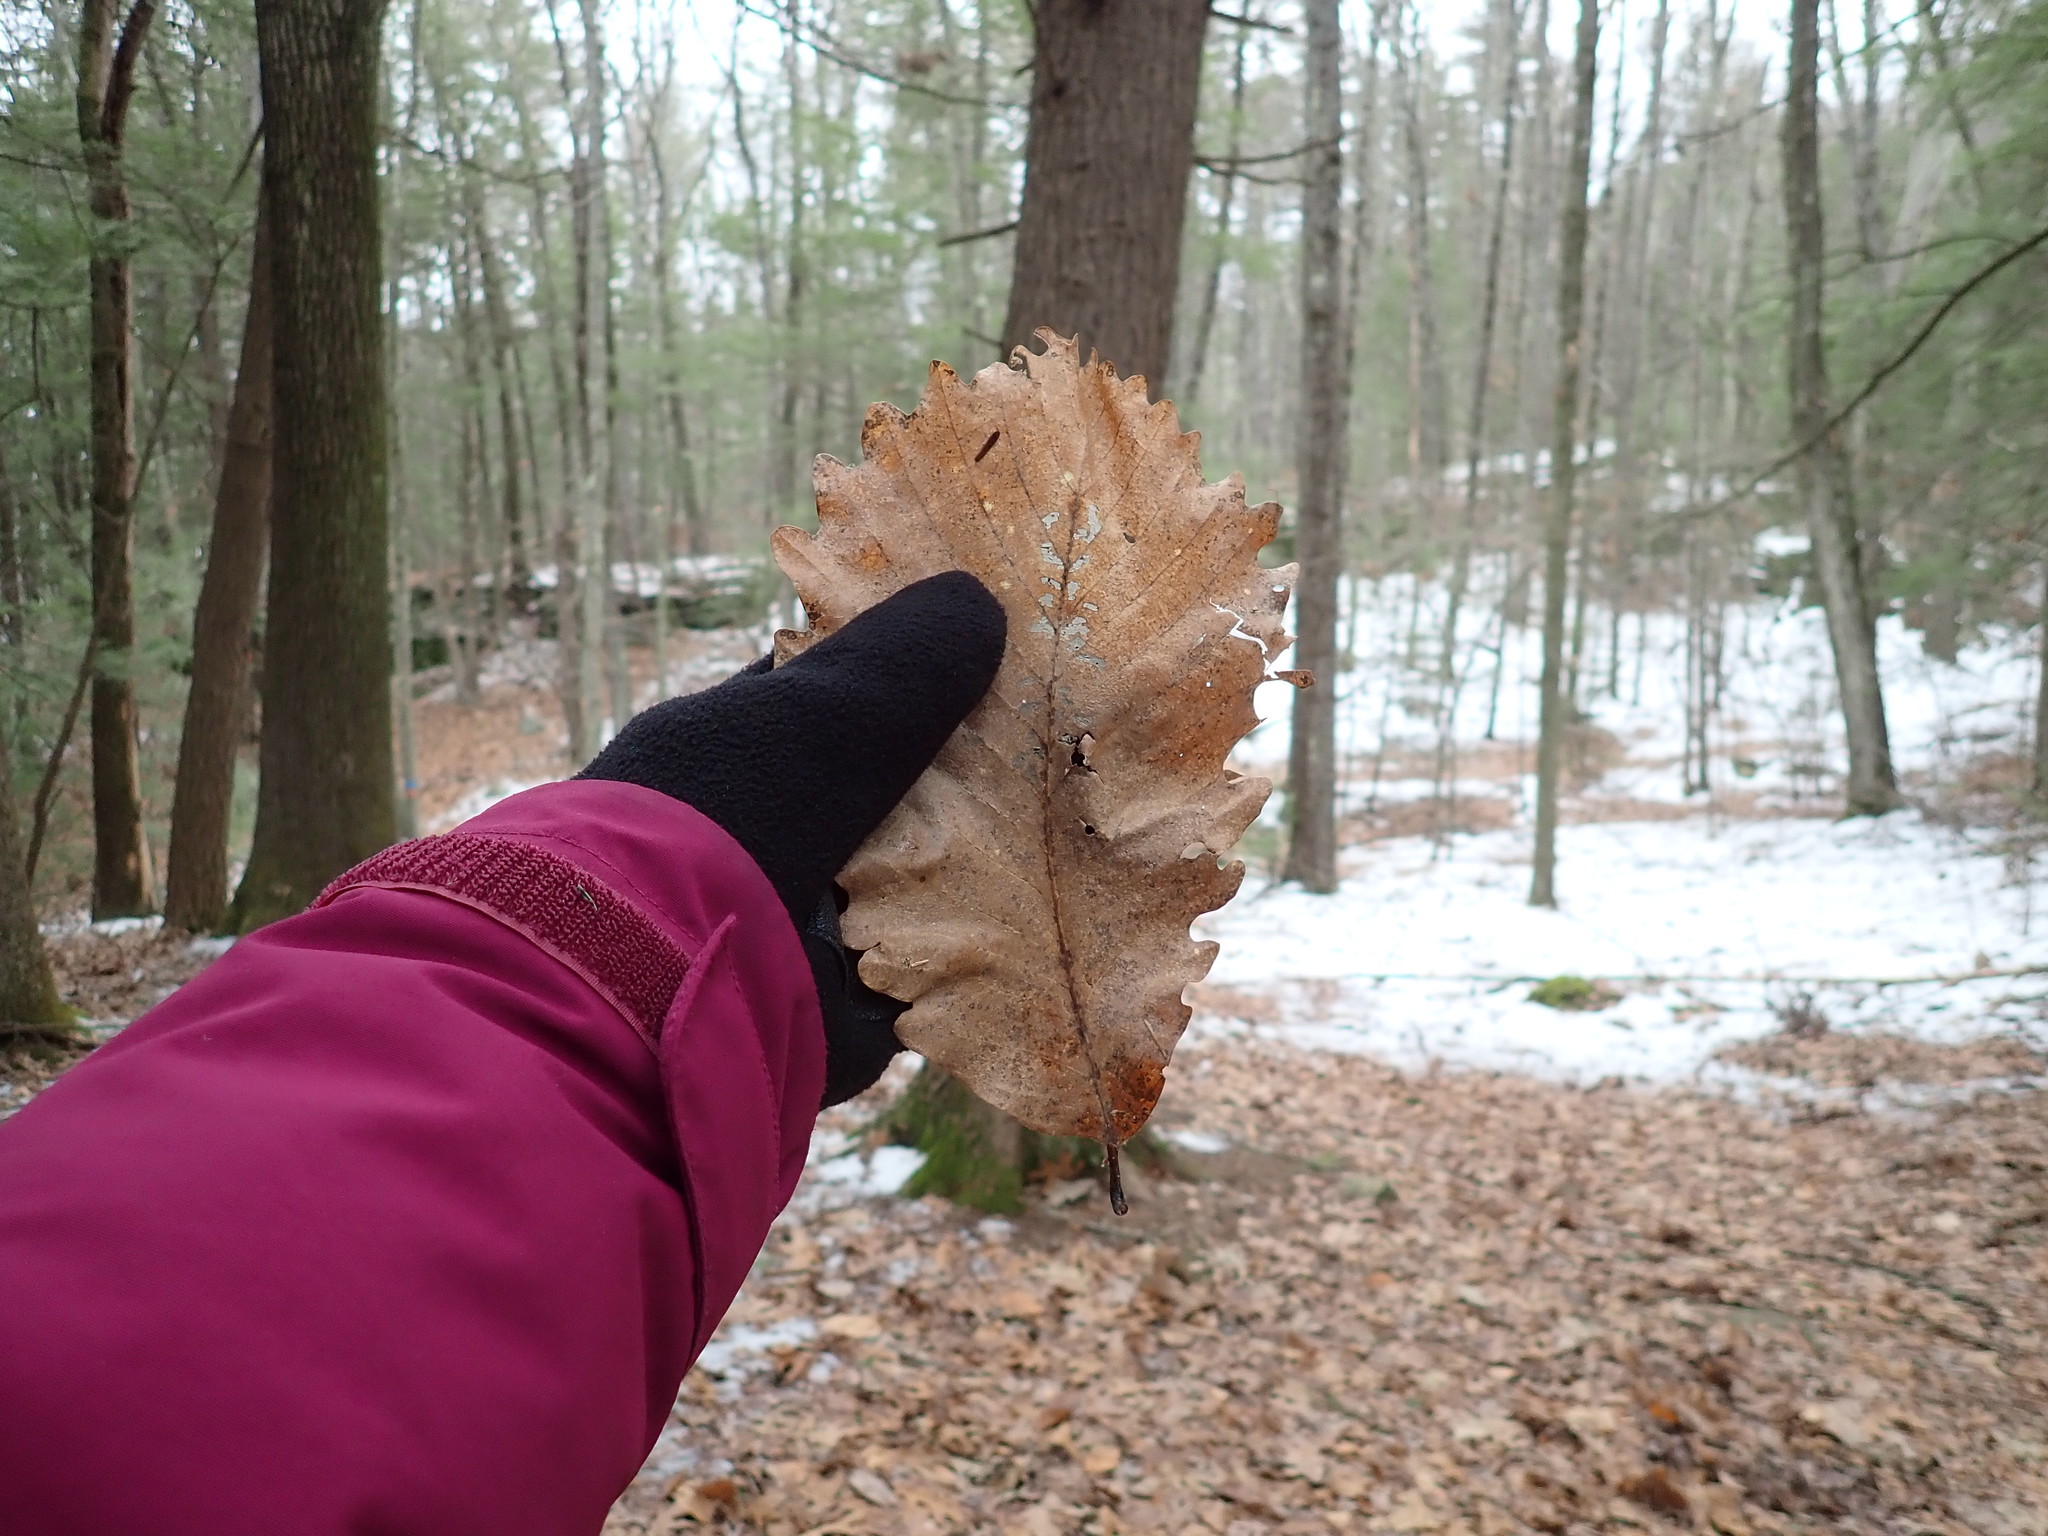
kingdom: Plantae
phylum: Tracheophyta
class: Magnoliopsida
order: Fagales
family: Fagaceae
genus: Quercus
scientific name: Quercus montana
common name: Chestnut oak
